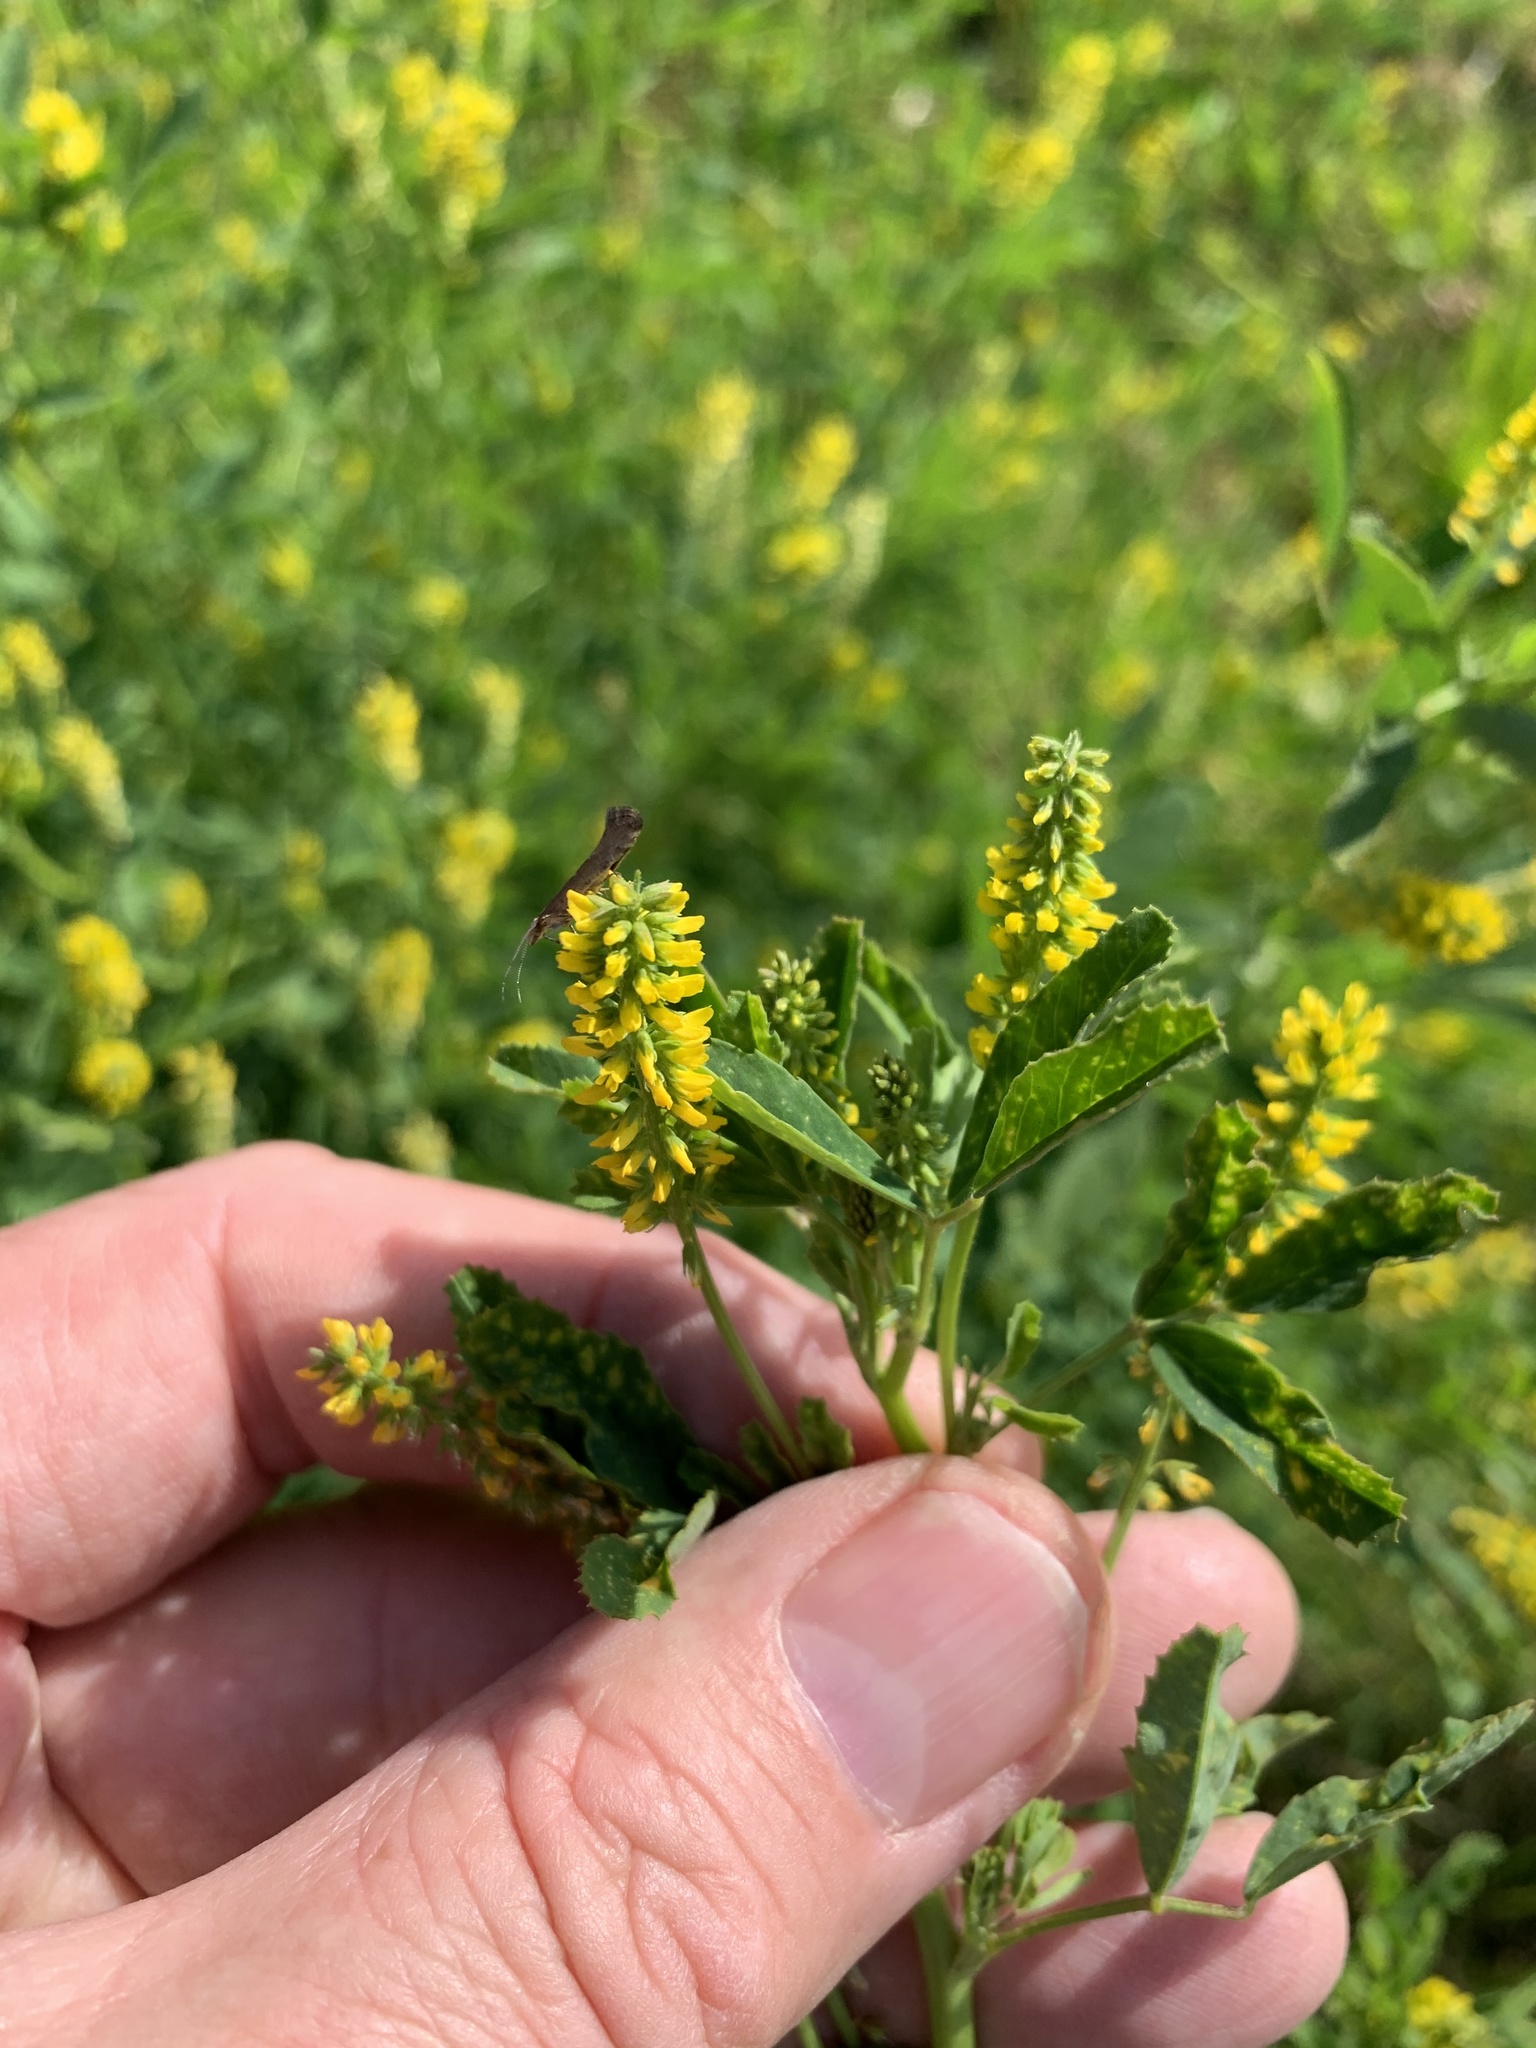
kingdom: Plantae
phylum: Tracheophyta
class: Magnoliopsida
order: Fabales
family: Fabaceae
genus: Melilotus
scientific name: Melilotus indicus
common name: Small melilot
